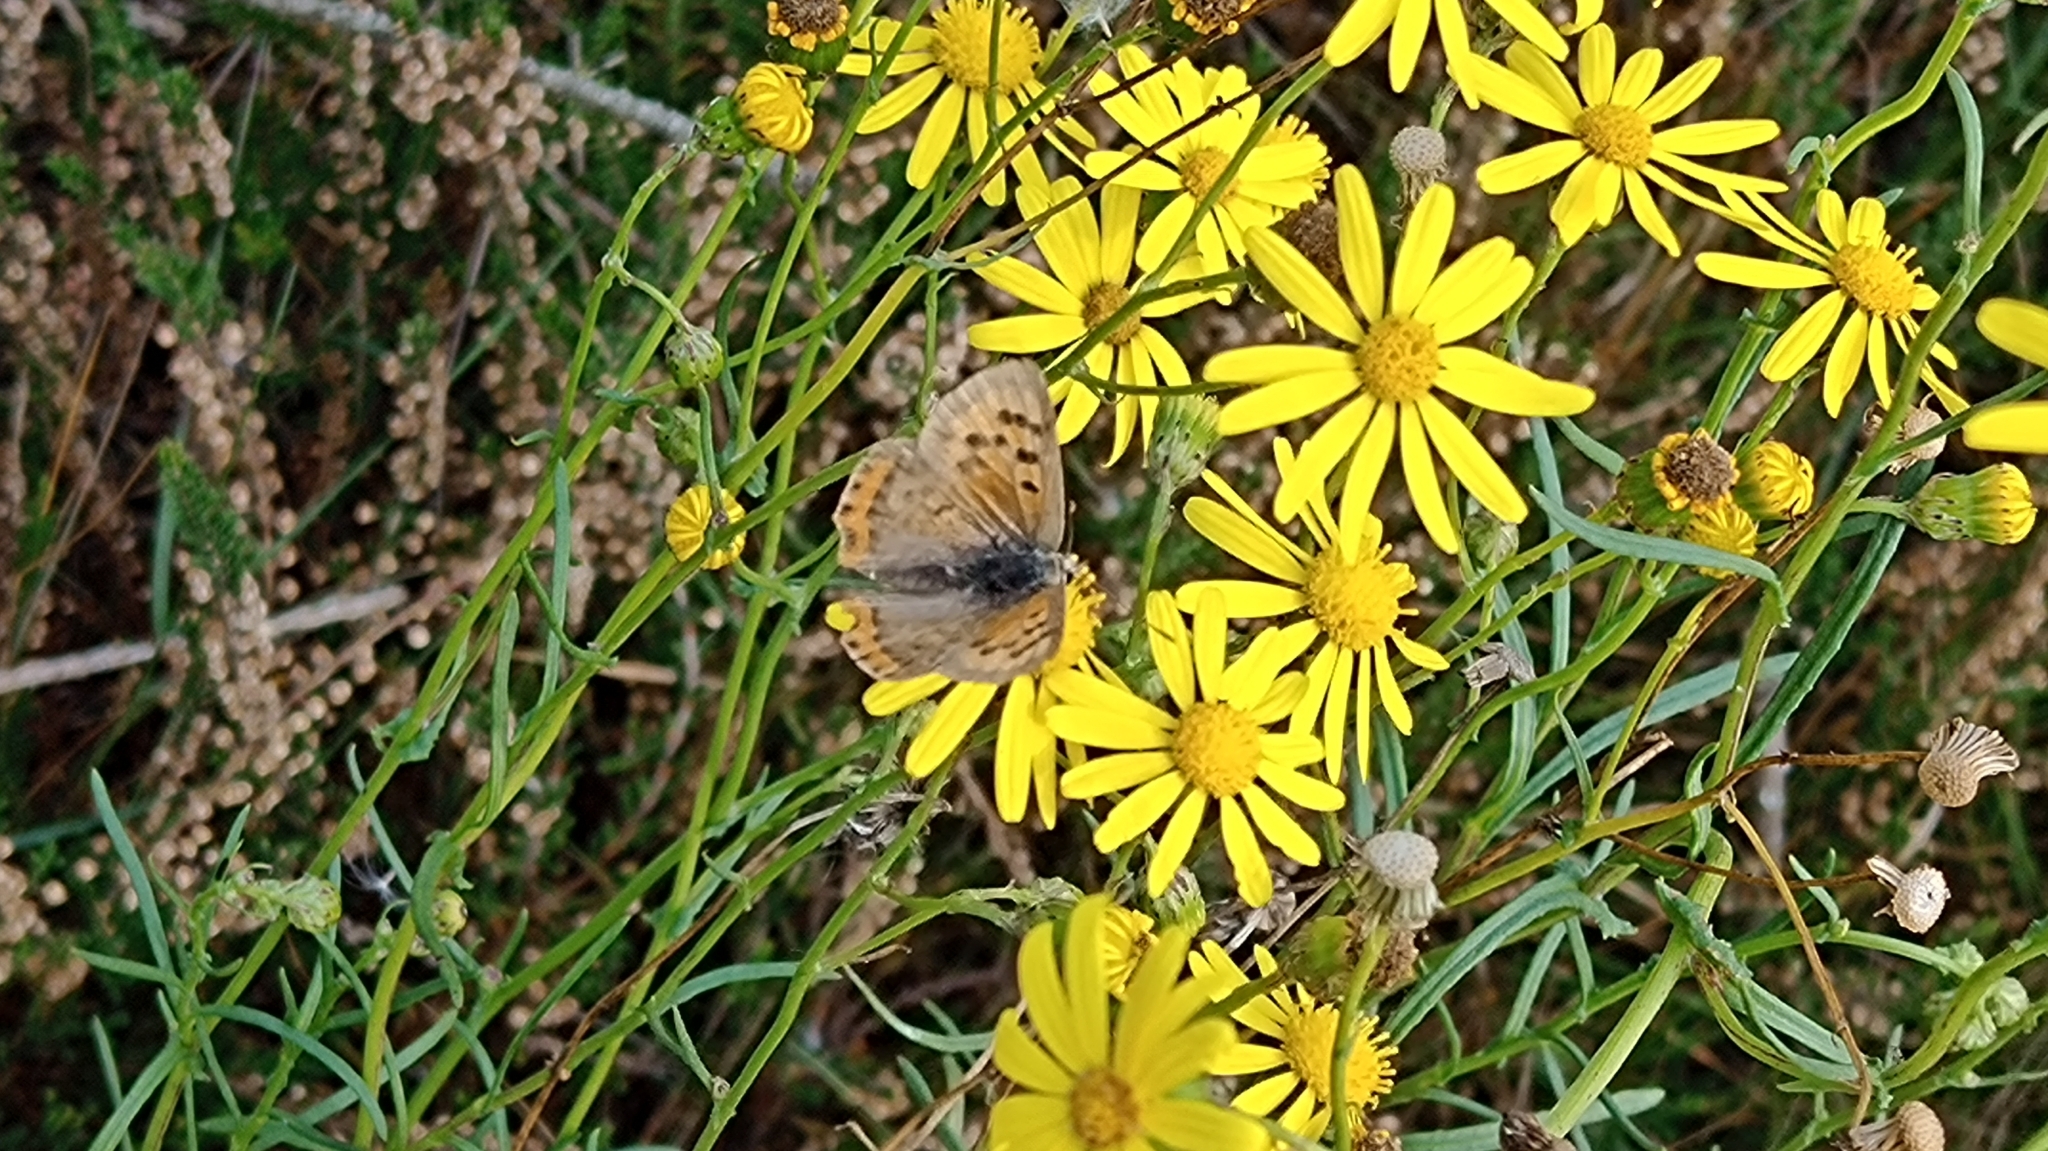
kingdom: Animalia
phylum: Arthropoda
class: Insecta
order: Lepidoptera
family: Lycaenidae
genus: Lycaena
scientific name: Lycaena phlaeas
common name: Small copper
